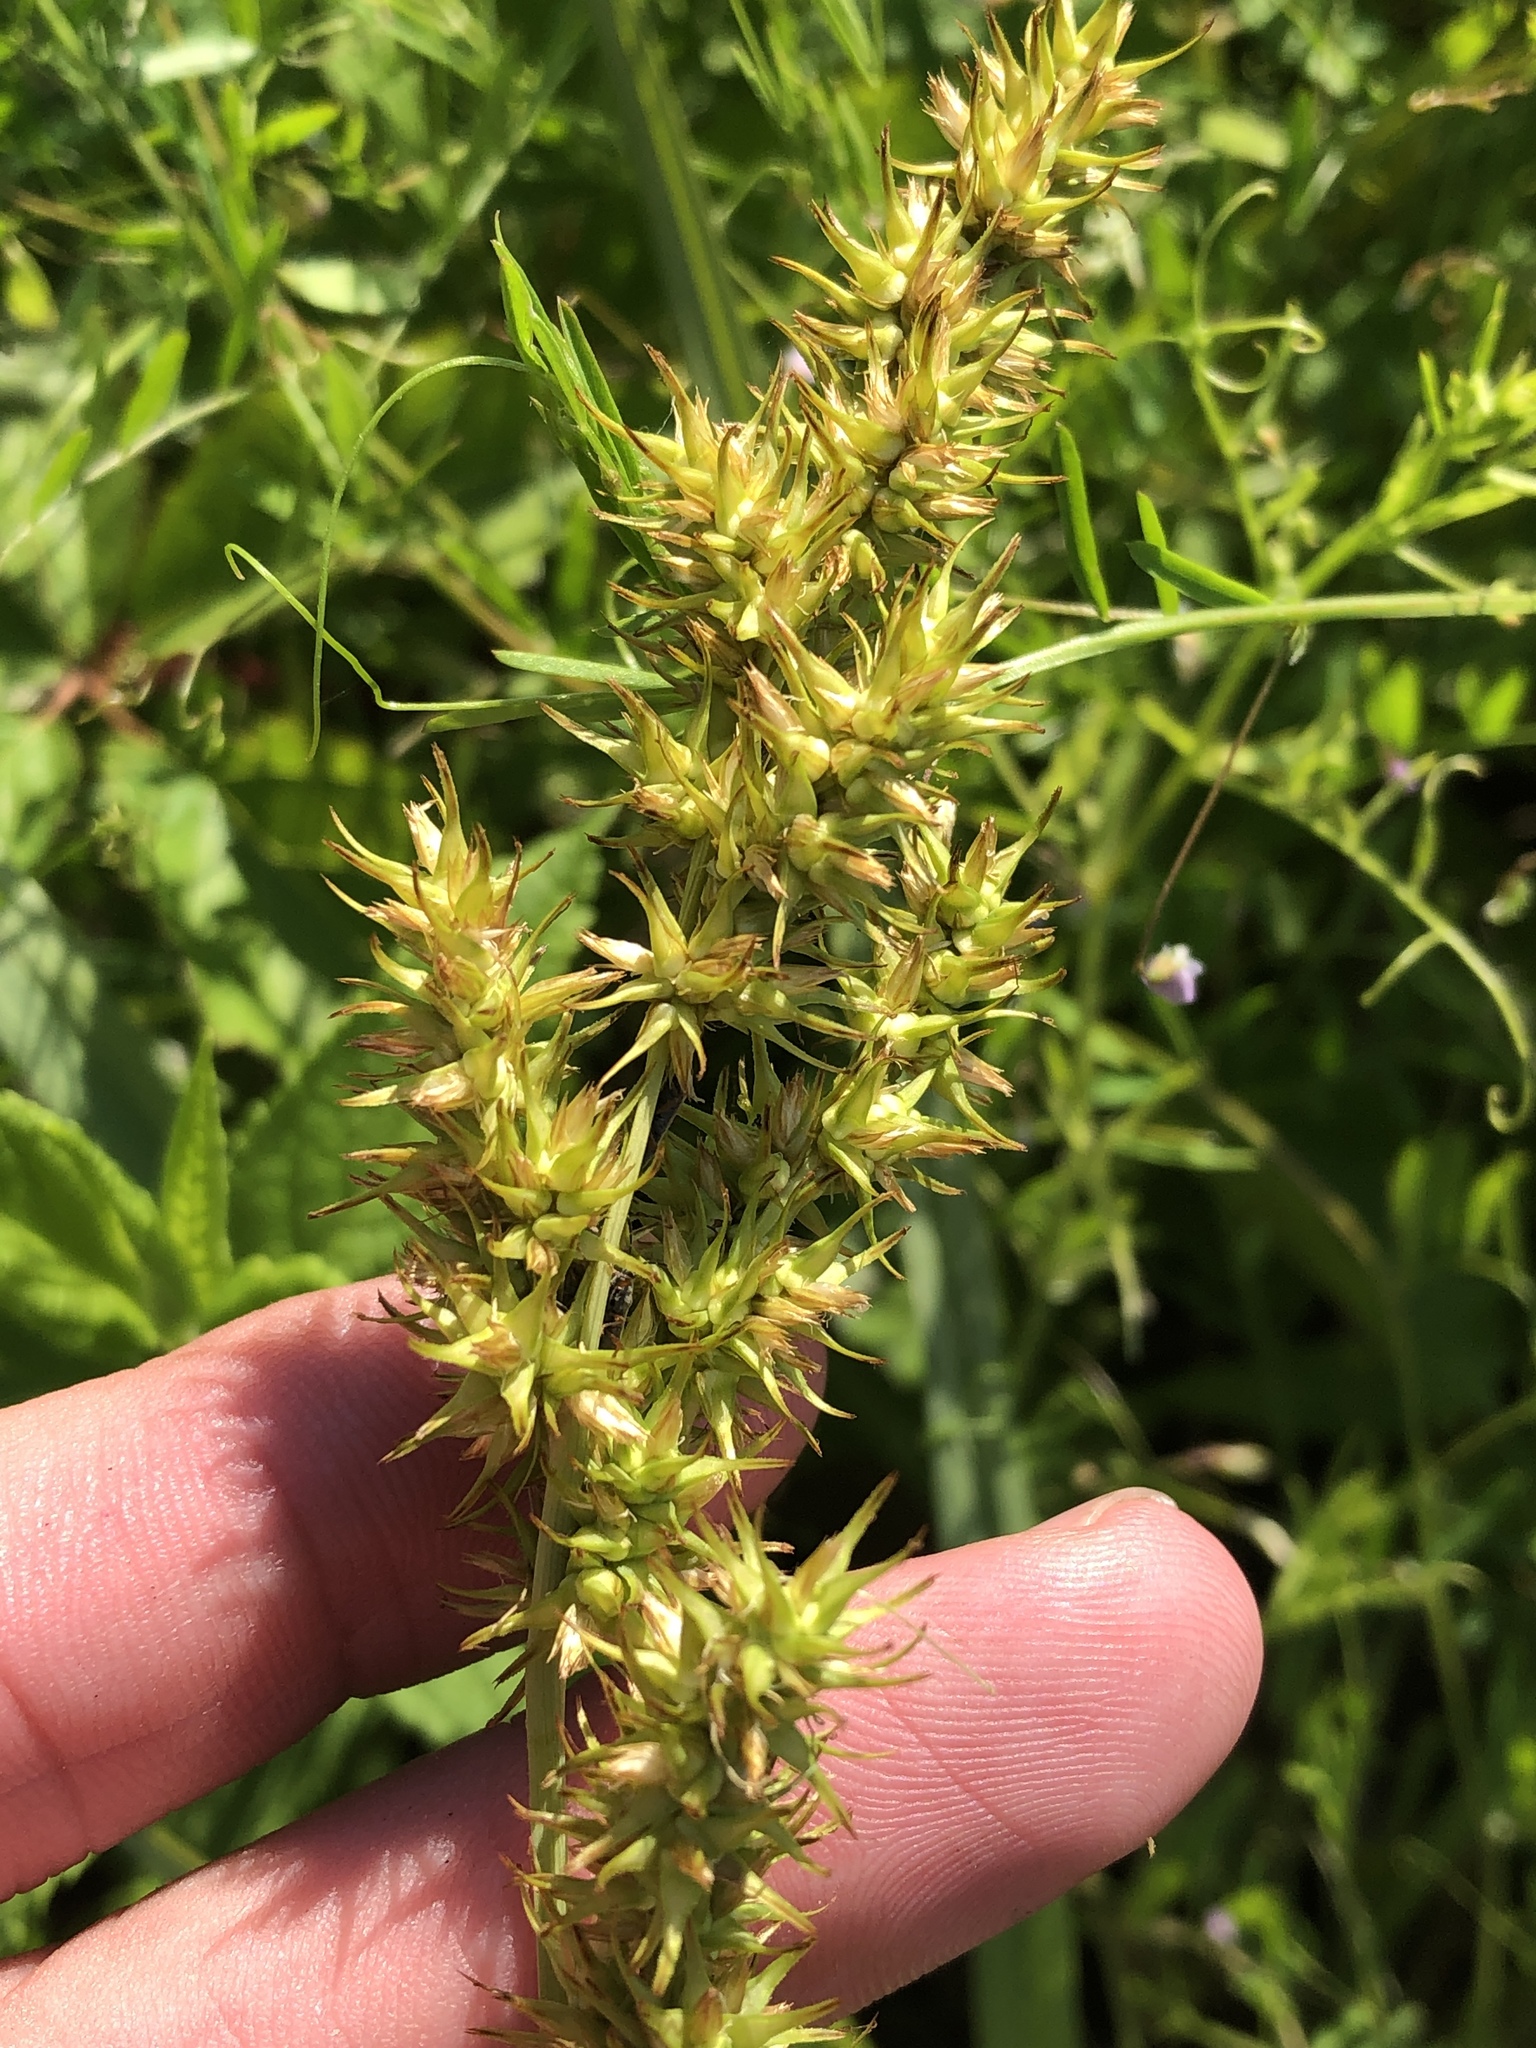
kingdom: Plantae
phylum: Tracheophyta
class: Liliopsida
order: Poales
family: Cyperaceae
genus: Carex
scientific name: Carex crus-corvi
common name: Crow-spur sedge
